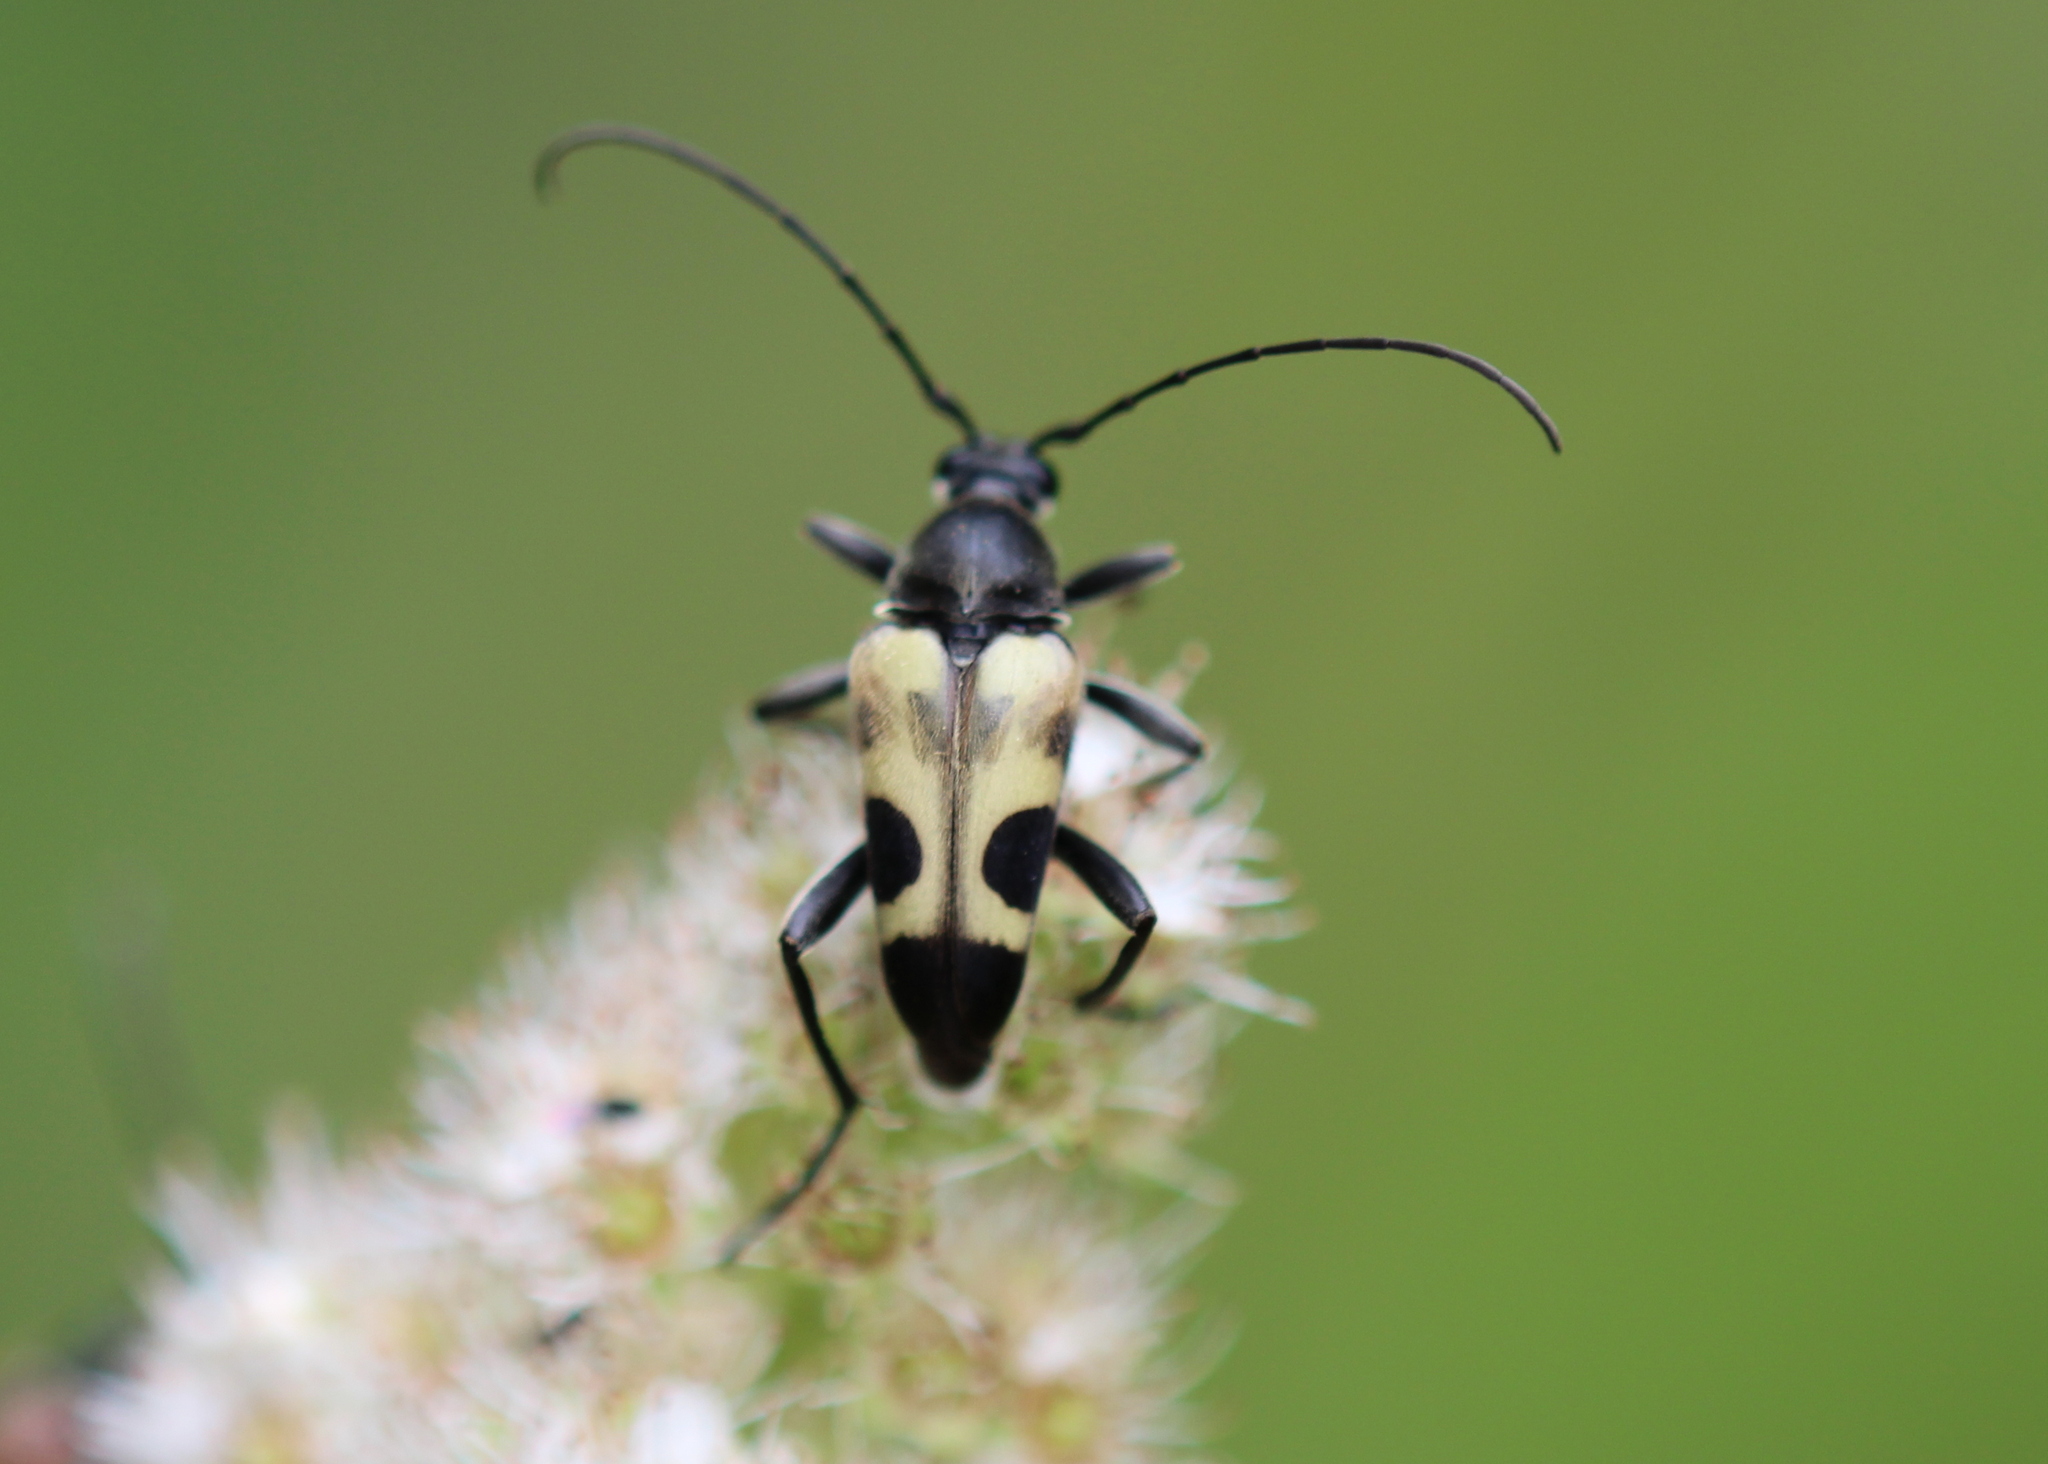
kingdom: Animalia
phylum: Arthropoda
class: Insecta
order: Coleoptera
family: Cerambycidae
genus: Judolia
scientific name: Judolia cordifera
